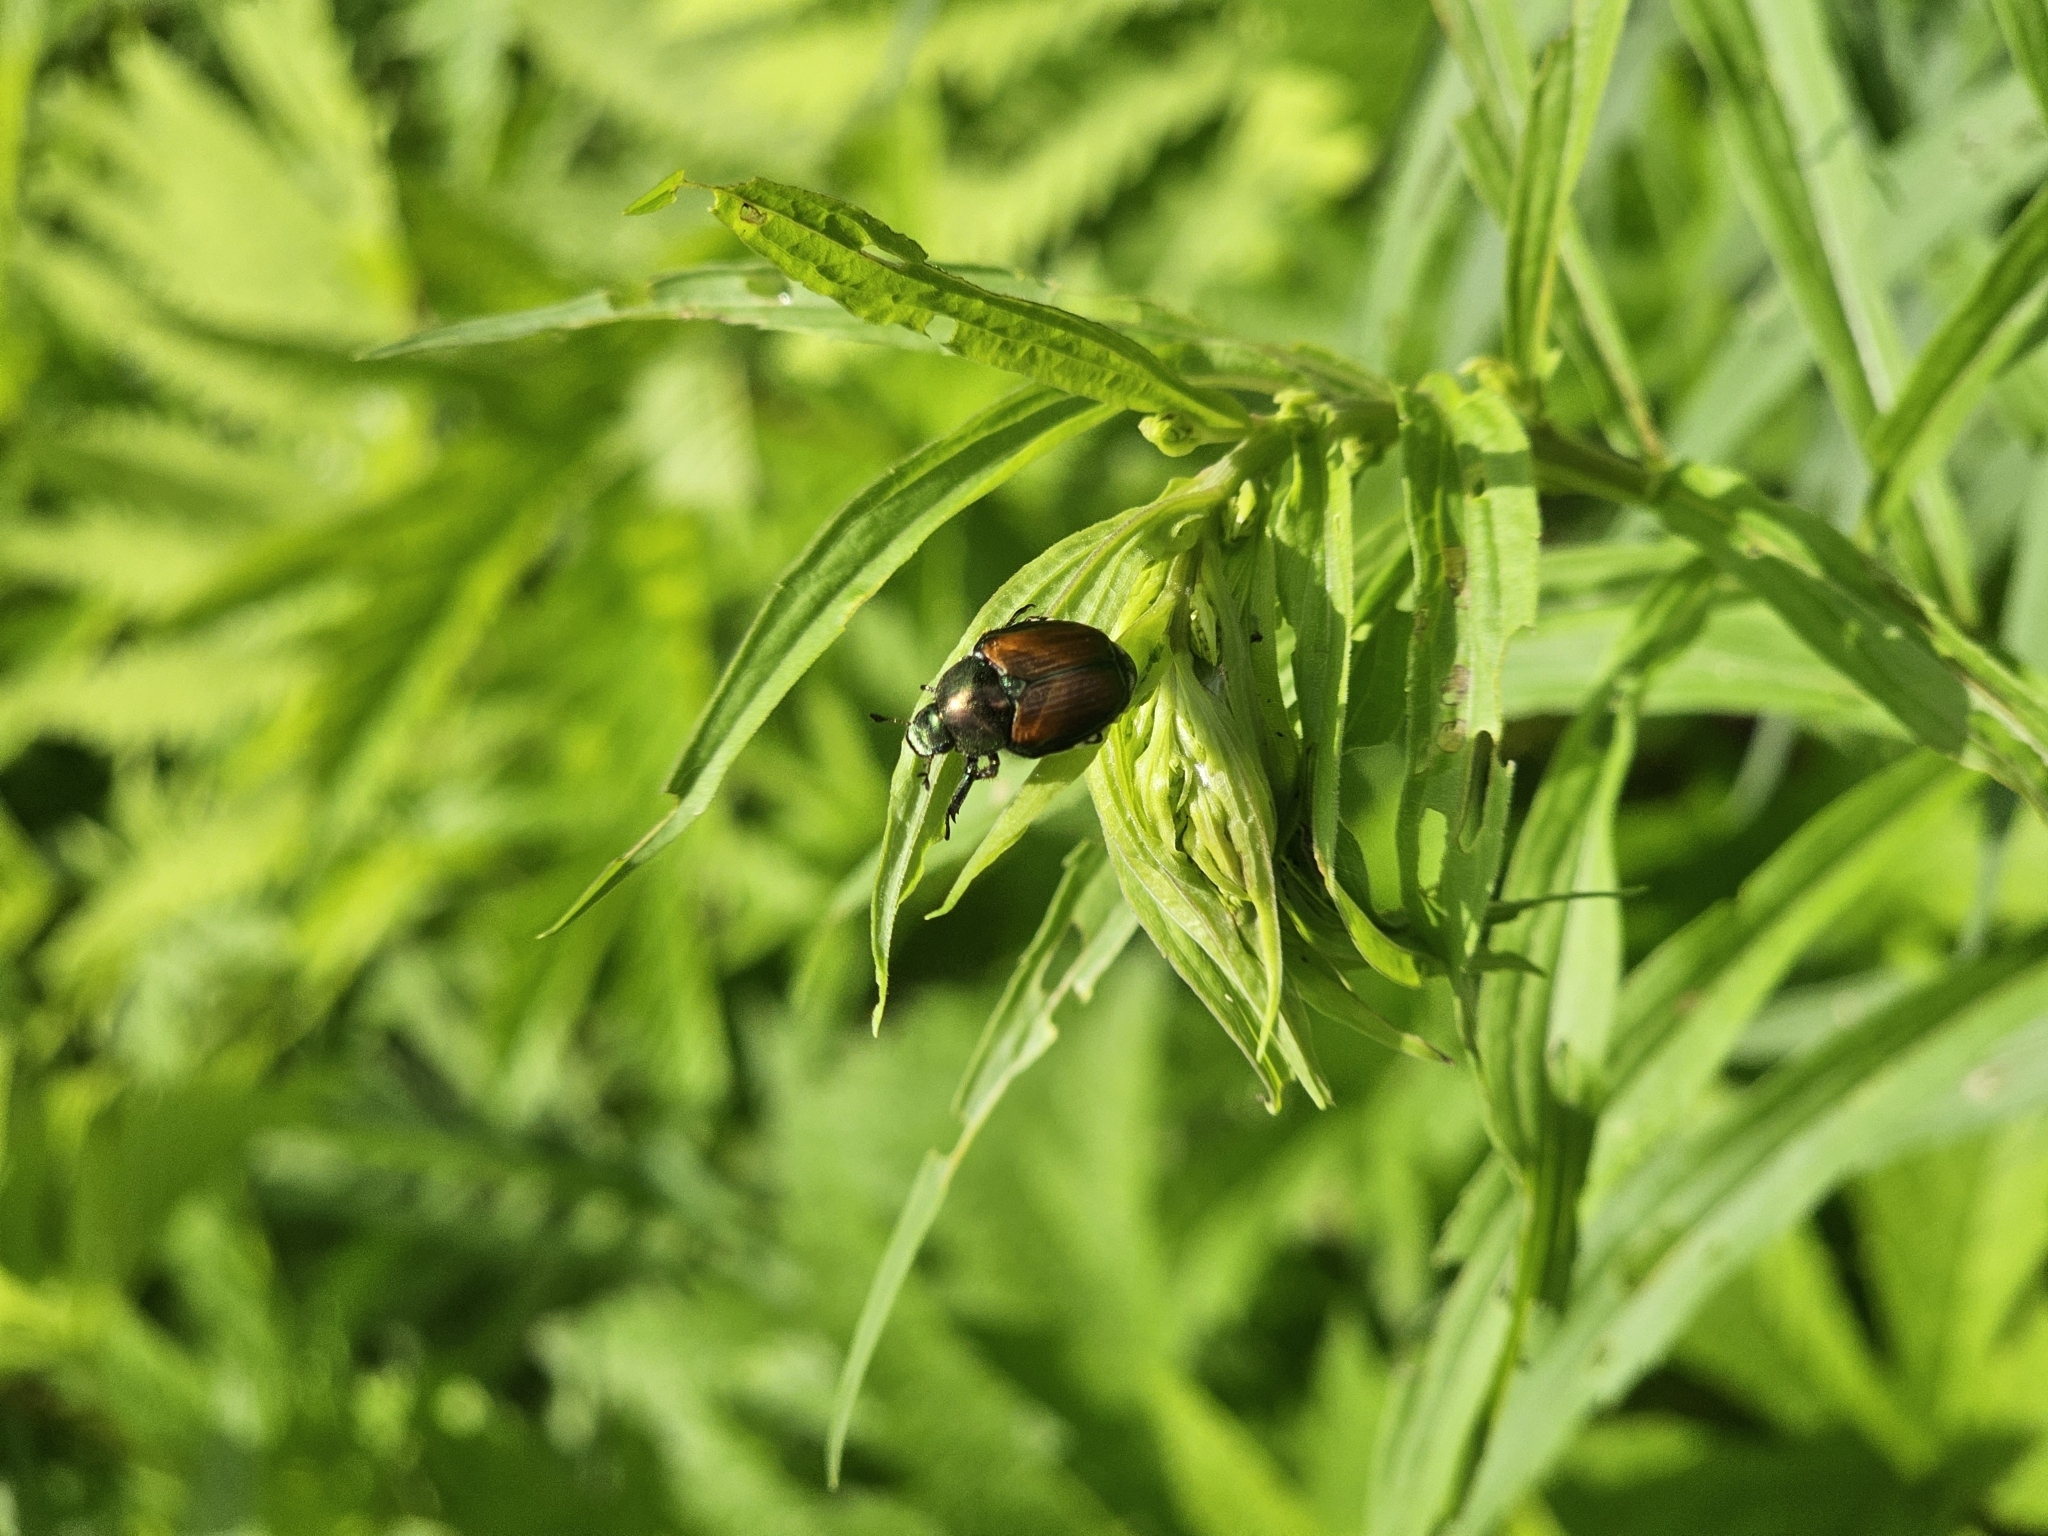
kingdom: Animalia
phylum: Arthropoda
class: Insecta
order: Coleoptera
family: Scarabaeidae
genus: Popillia
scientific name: Popillia japonica
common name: Japanese beetle
